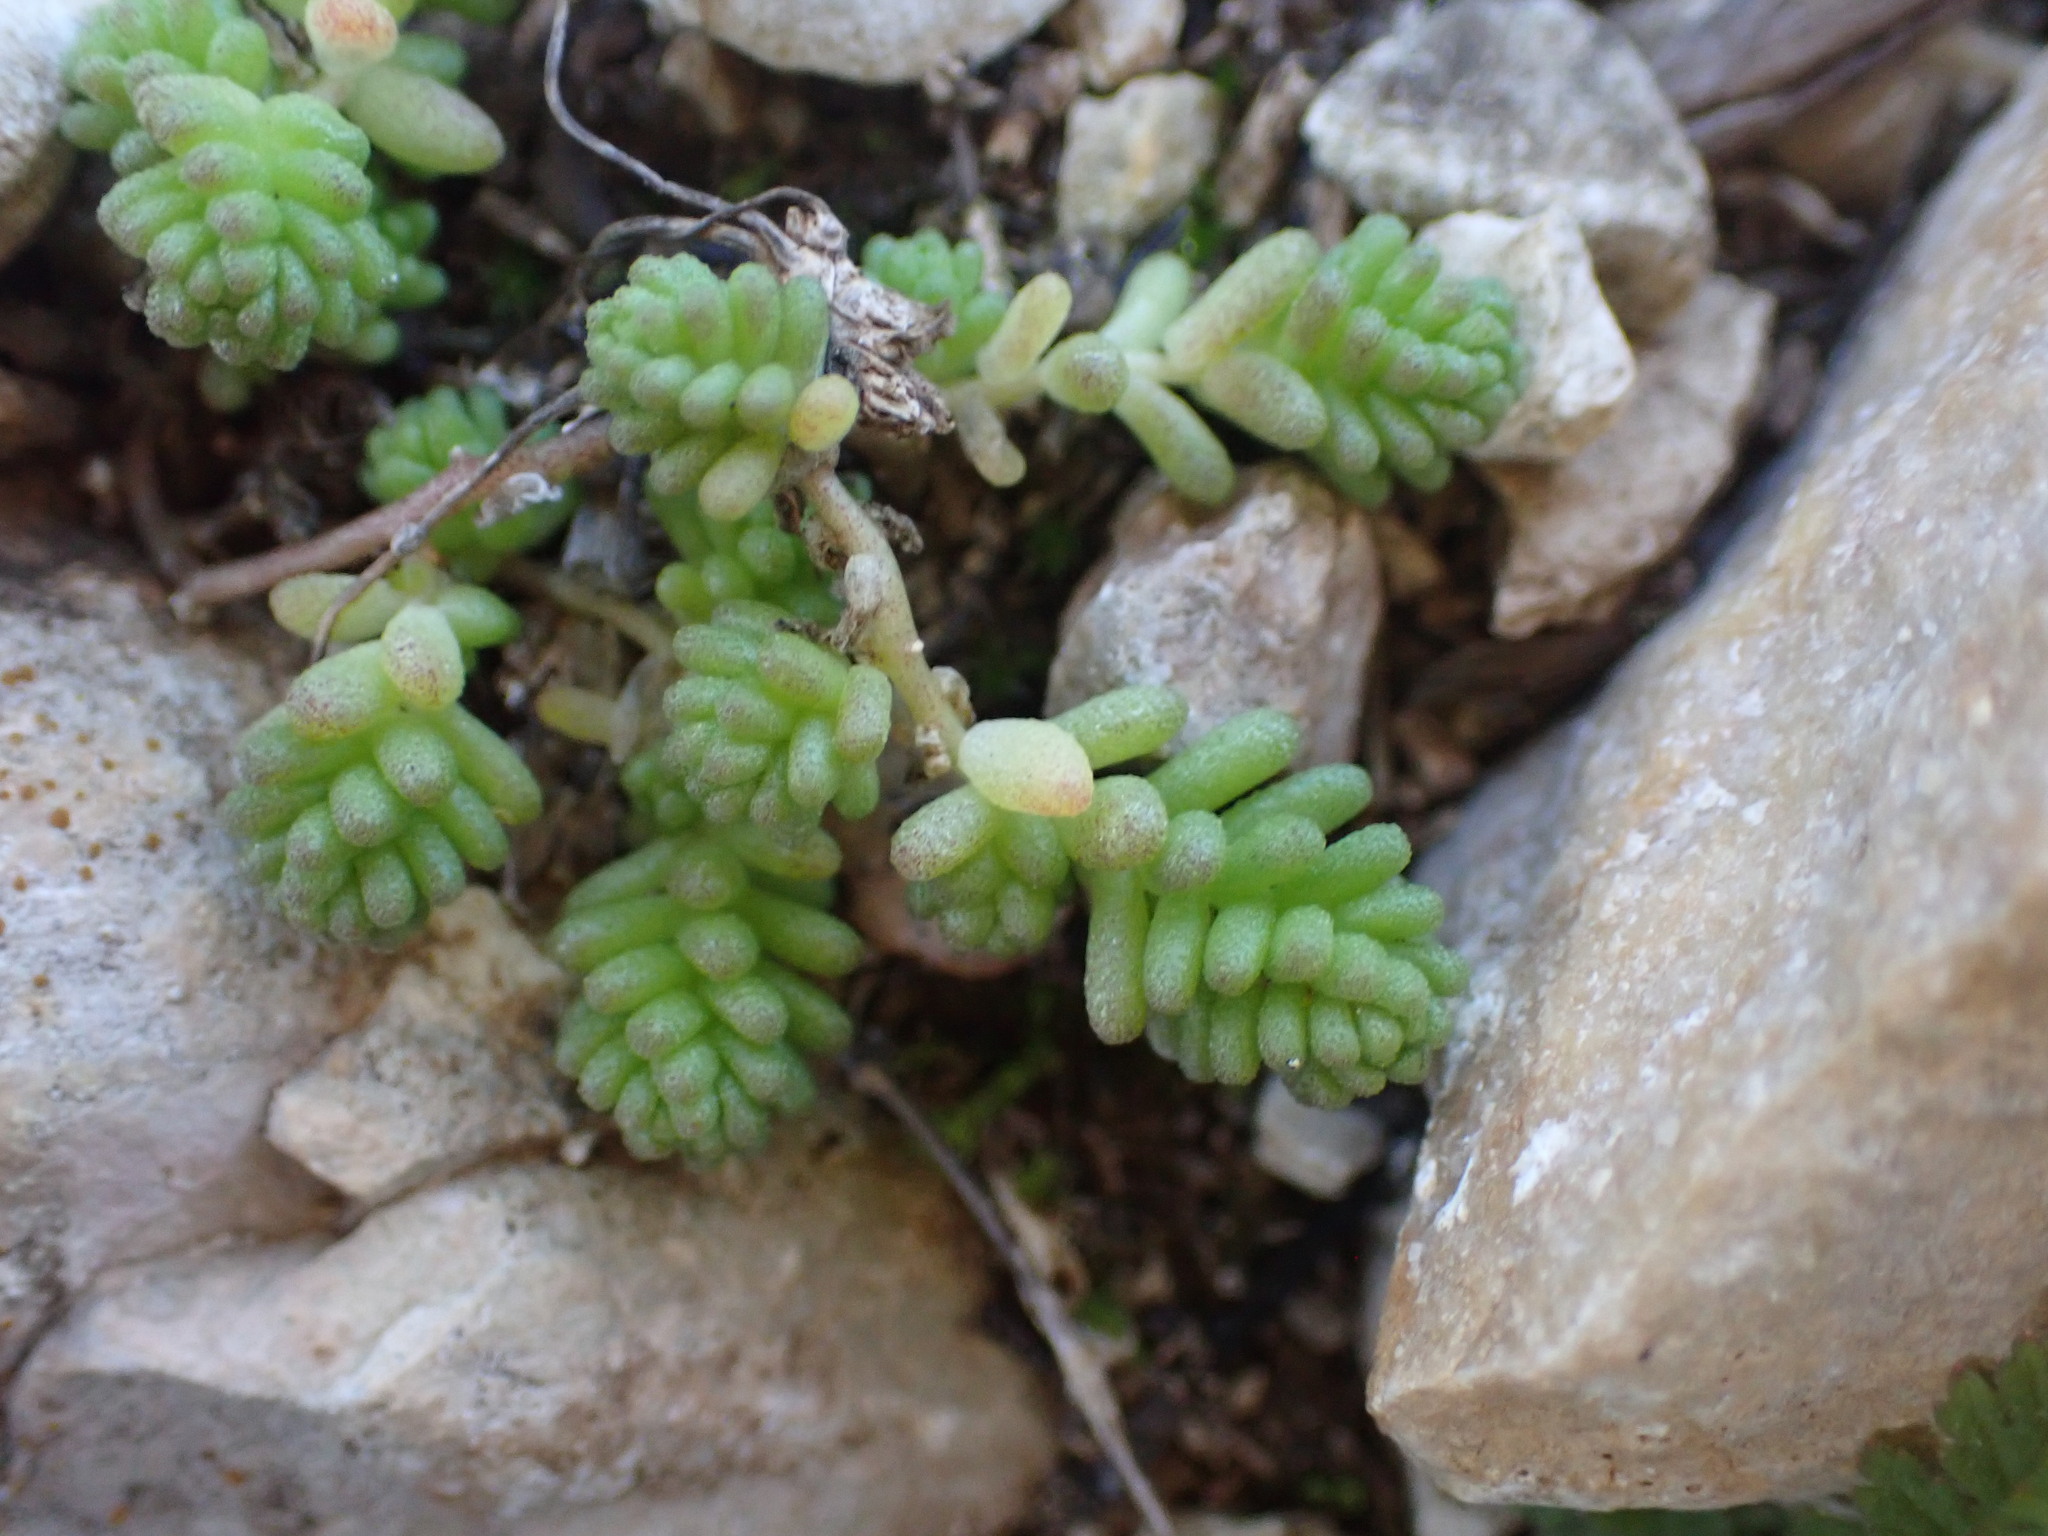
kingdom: Plantae
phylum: Tracheophyta
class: Magnoliopsida
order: Saxifragales
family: Crassulaceae
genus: Sedum
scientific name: Sedum acre
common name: Biting stonecrop
